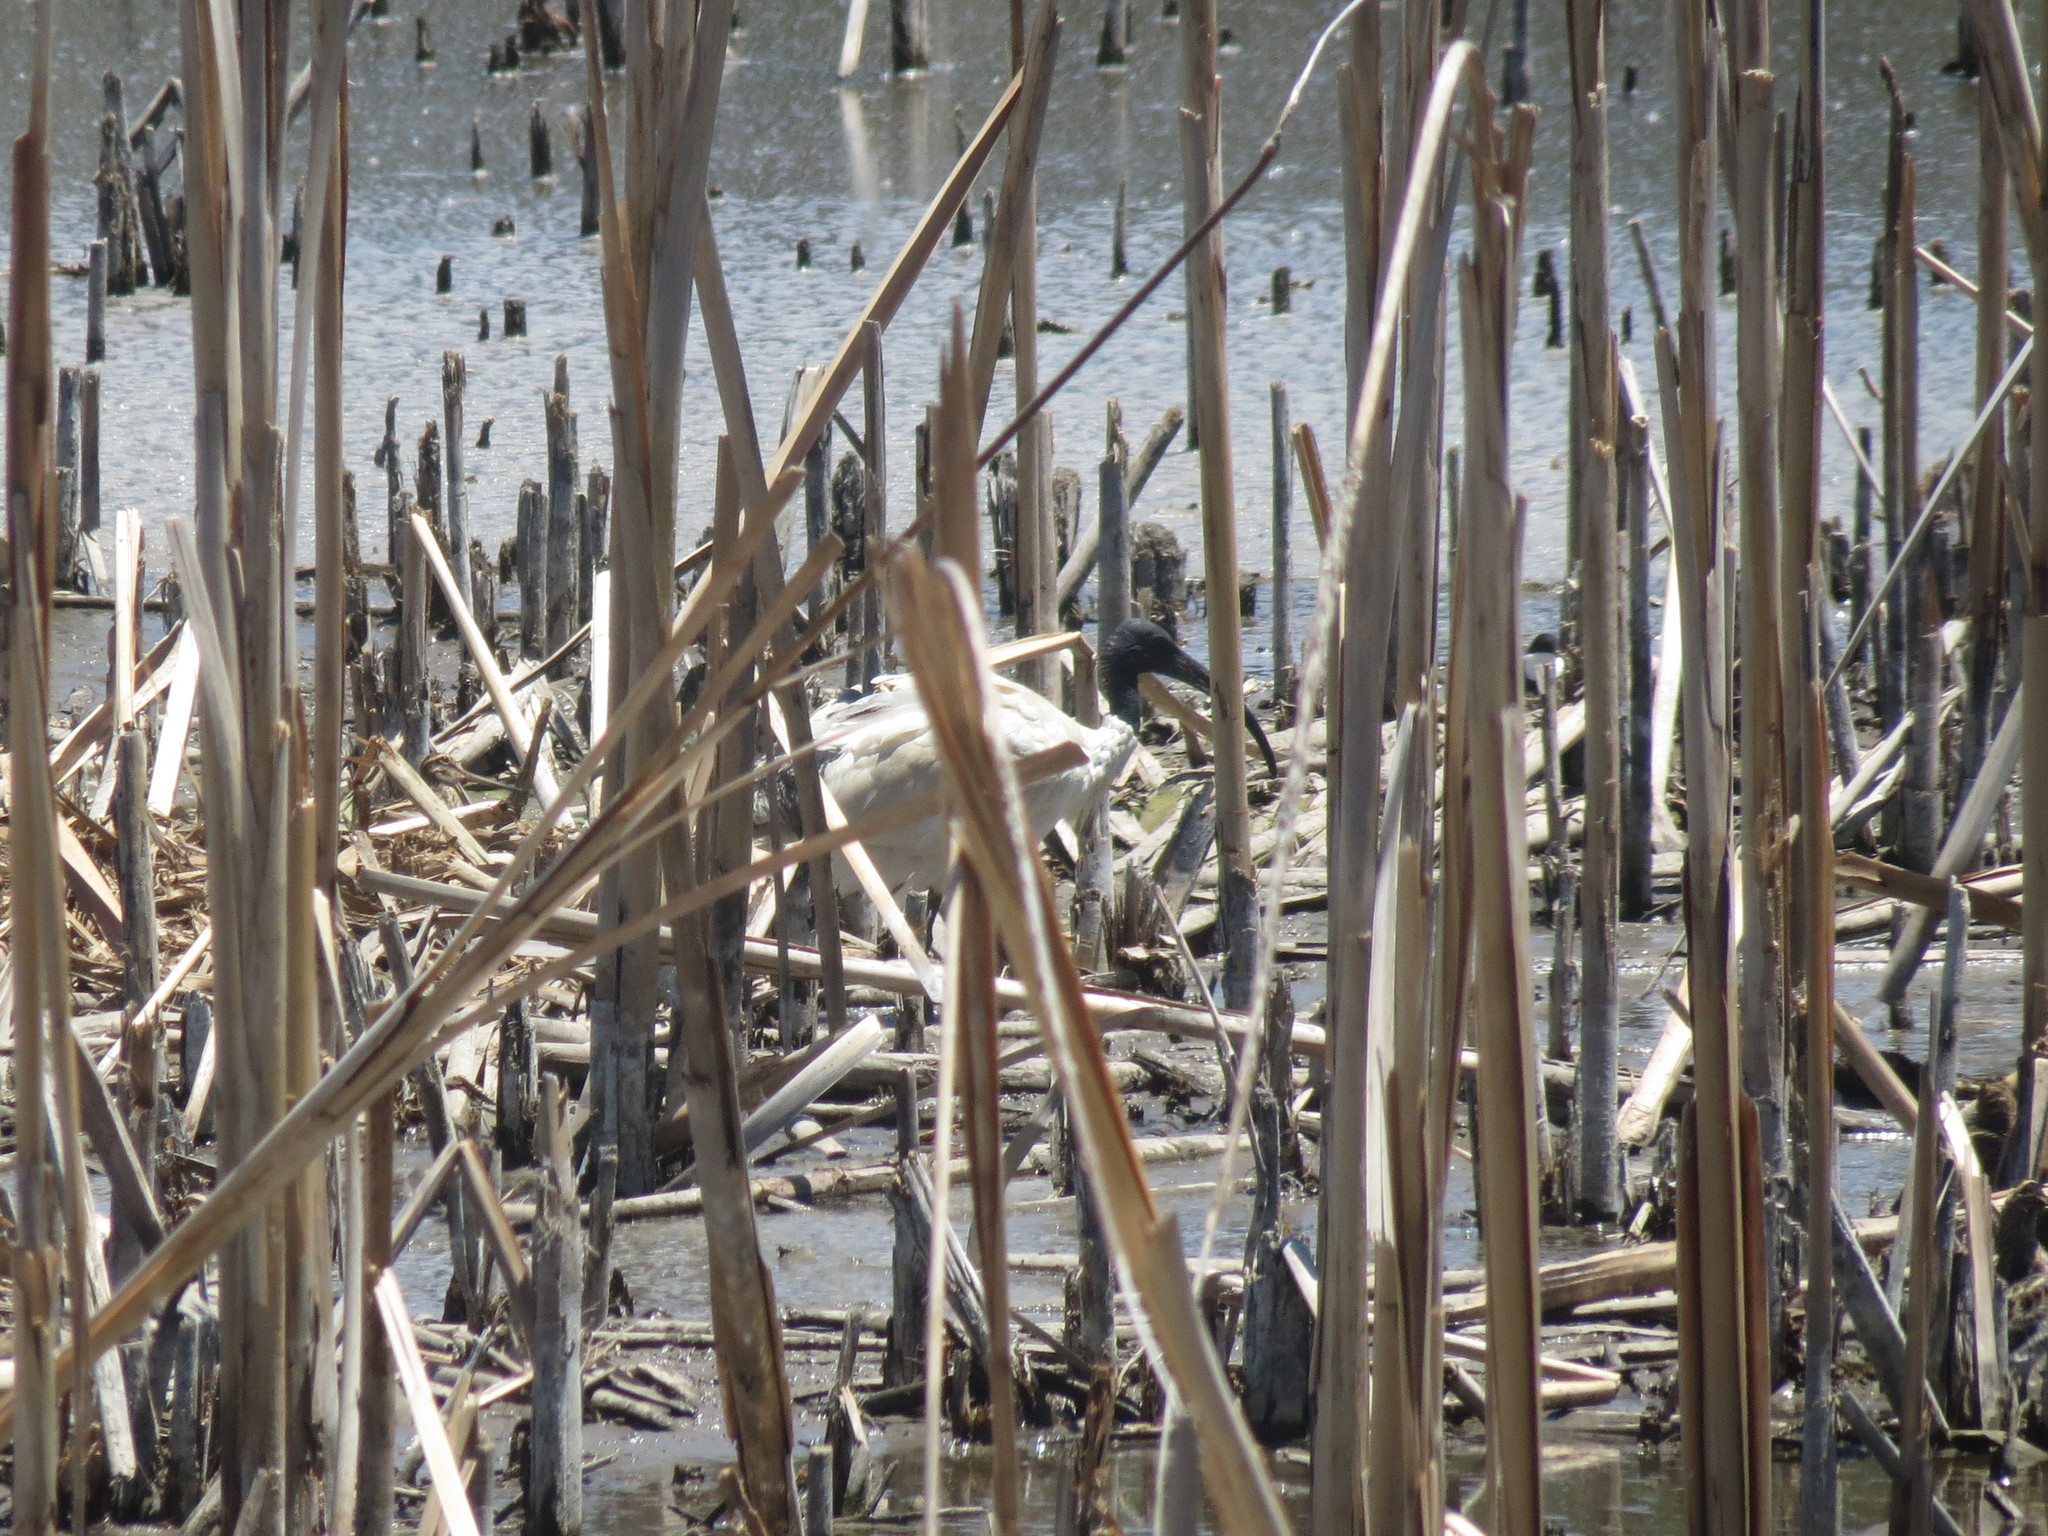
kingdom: Animalia
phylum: Chordata
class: Aves
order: Pelecaniformes
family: Threskiornithidae
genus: Threskiornis
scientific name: Threskiornis molucca
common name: Australian white ibis
